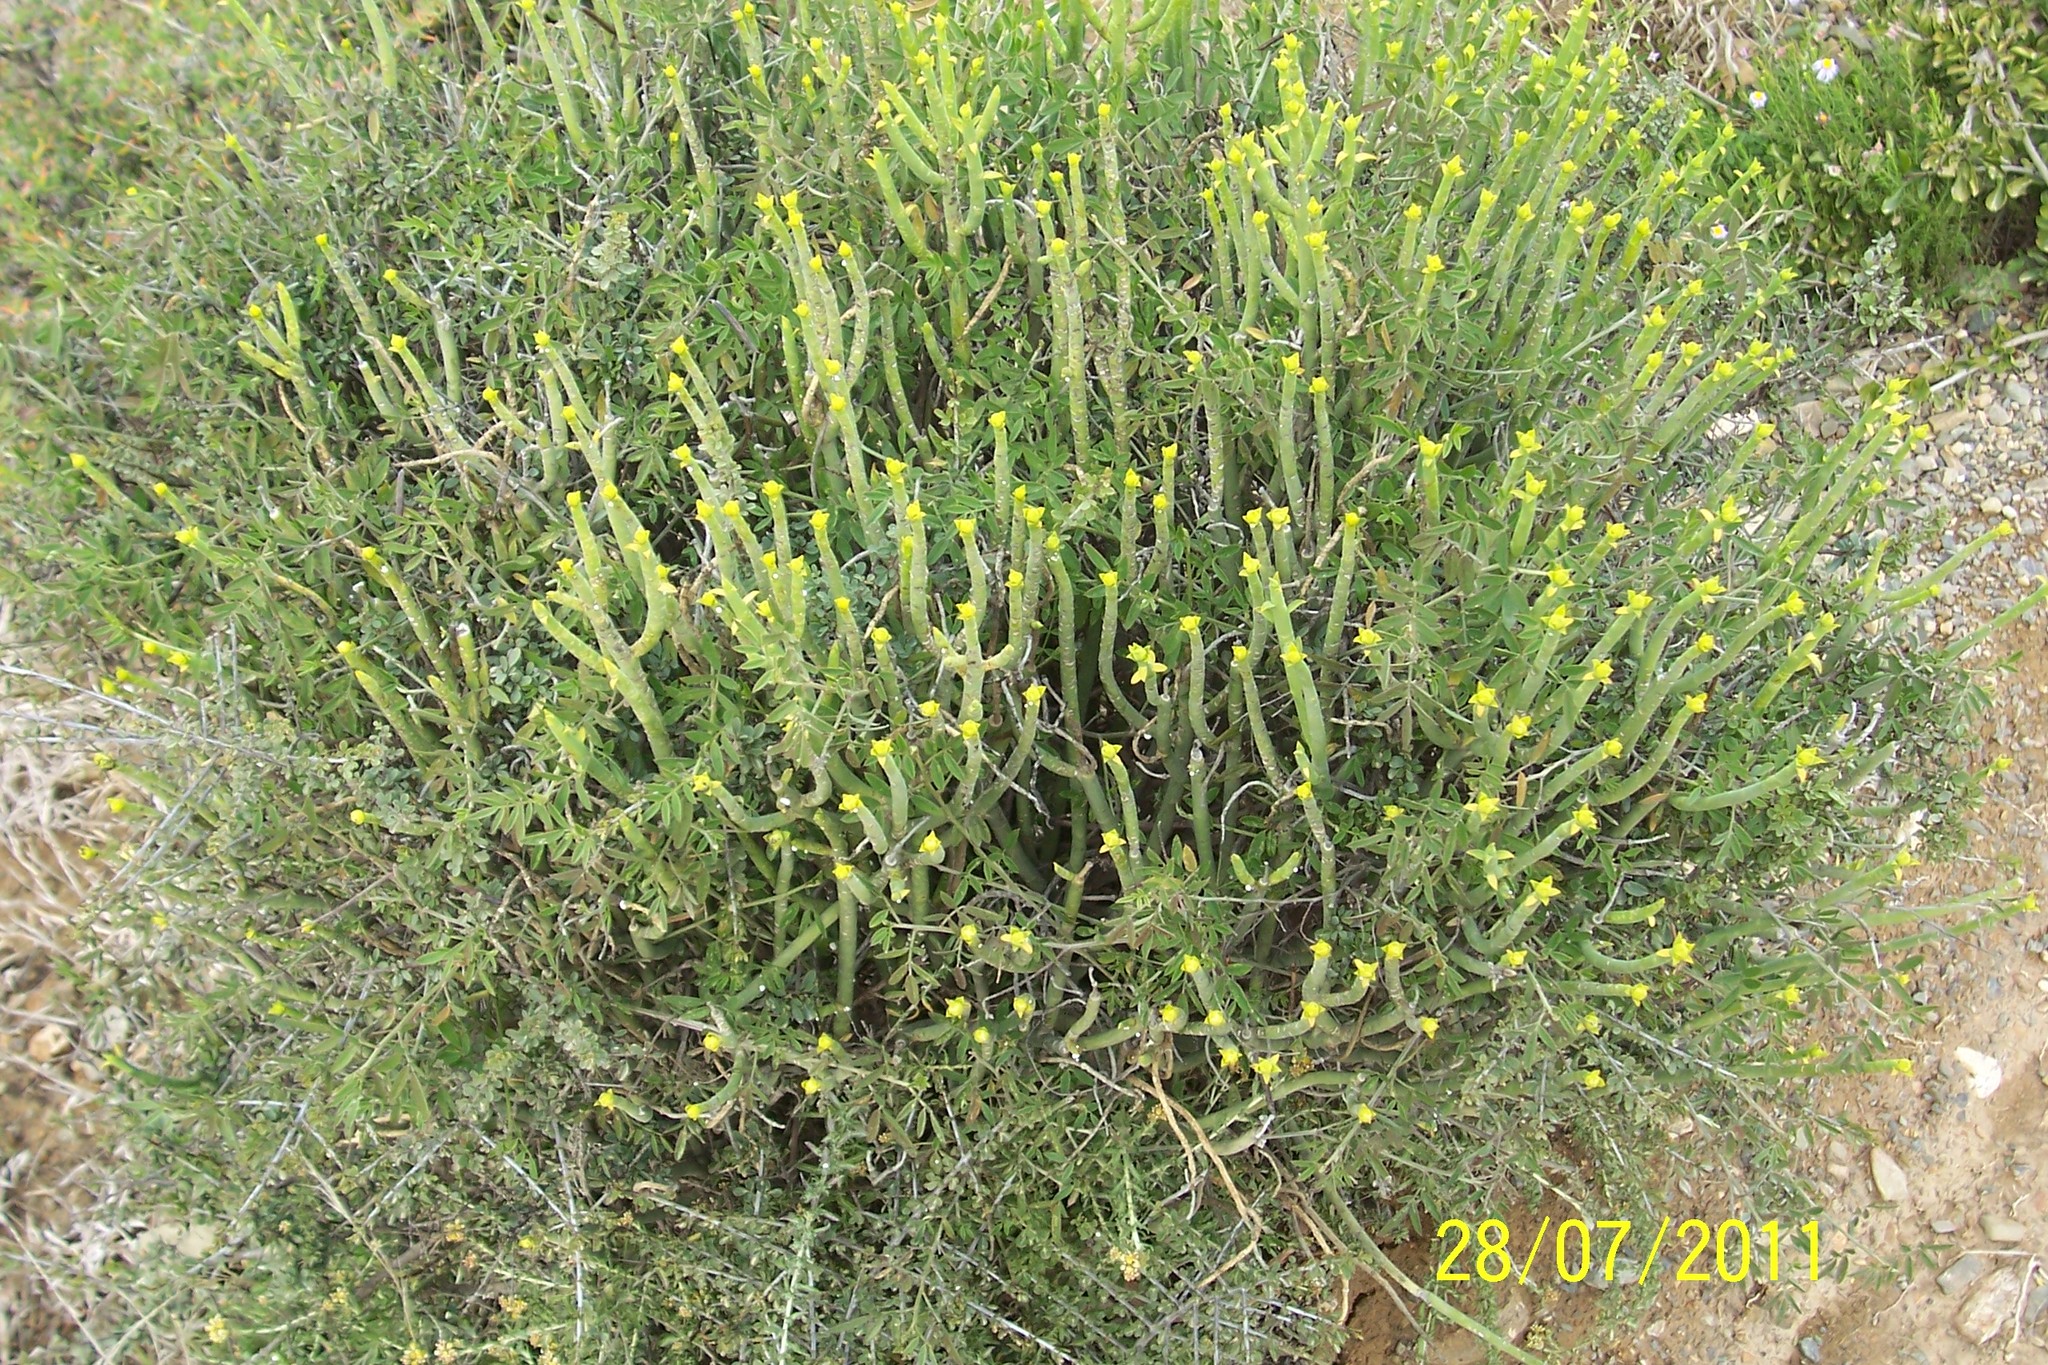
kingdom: Plantae
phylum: Tracheophyta
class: Magnoliopsida
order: Malpighiales
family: Euphorbiaceae
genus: Euphorbia
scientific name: Euphorbia mauritanica
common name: Jackal's-food
